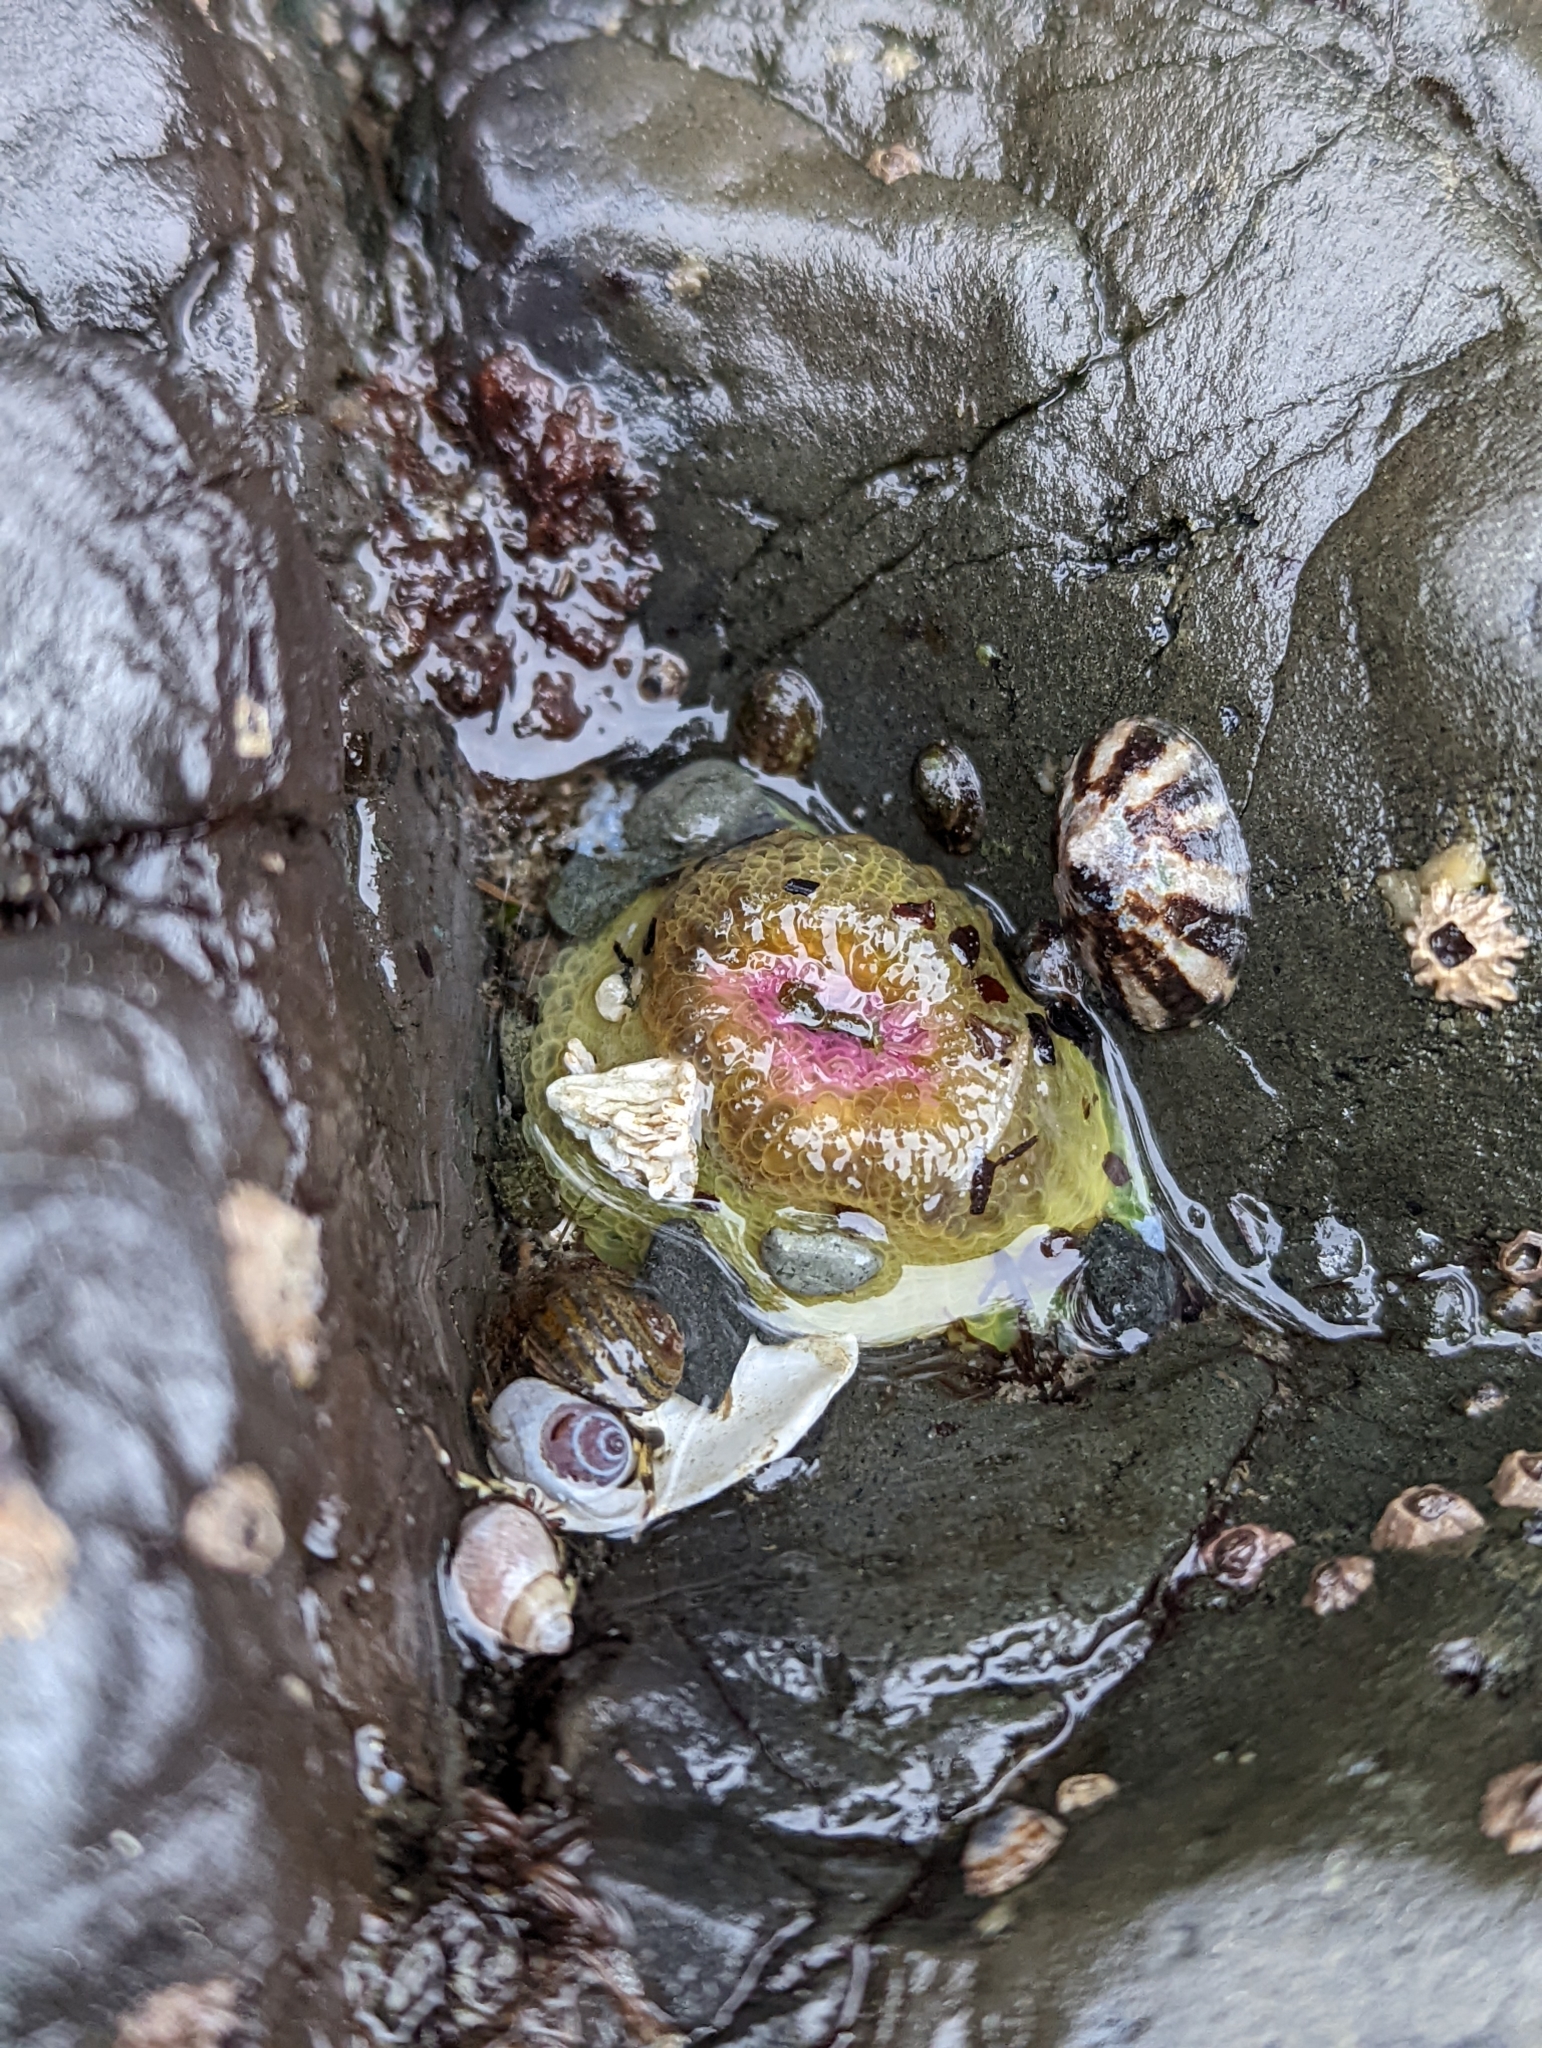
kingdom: Animalia
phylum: Cnidaria
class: Anthozoa
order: Actiniaria
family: Actiniidae
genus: Anthopleura
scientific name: Anthopleura elegantissima
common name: Clonal anemone
